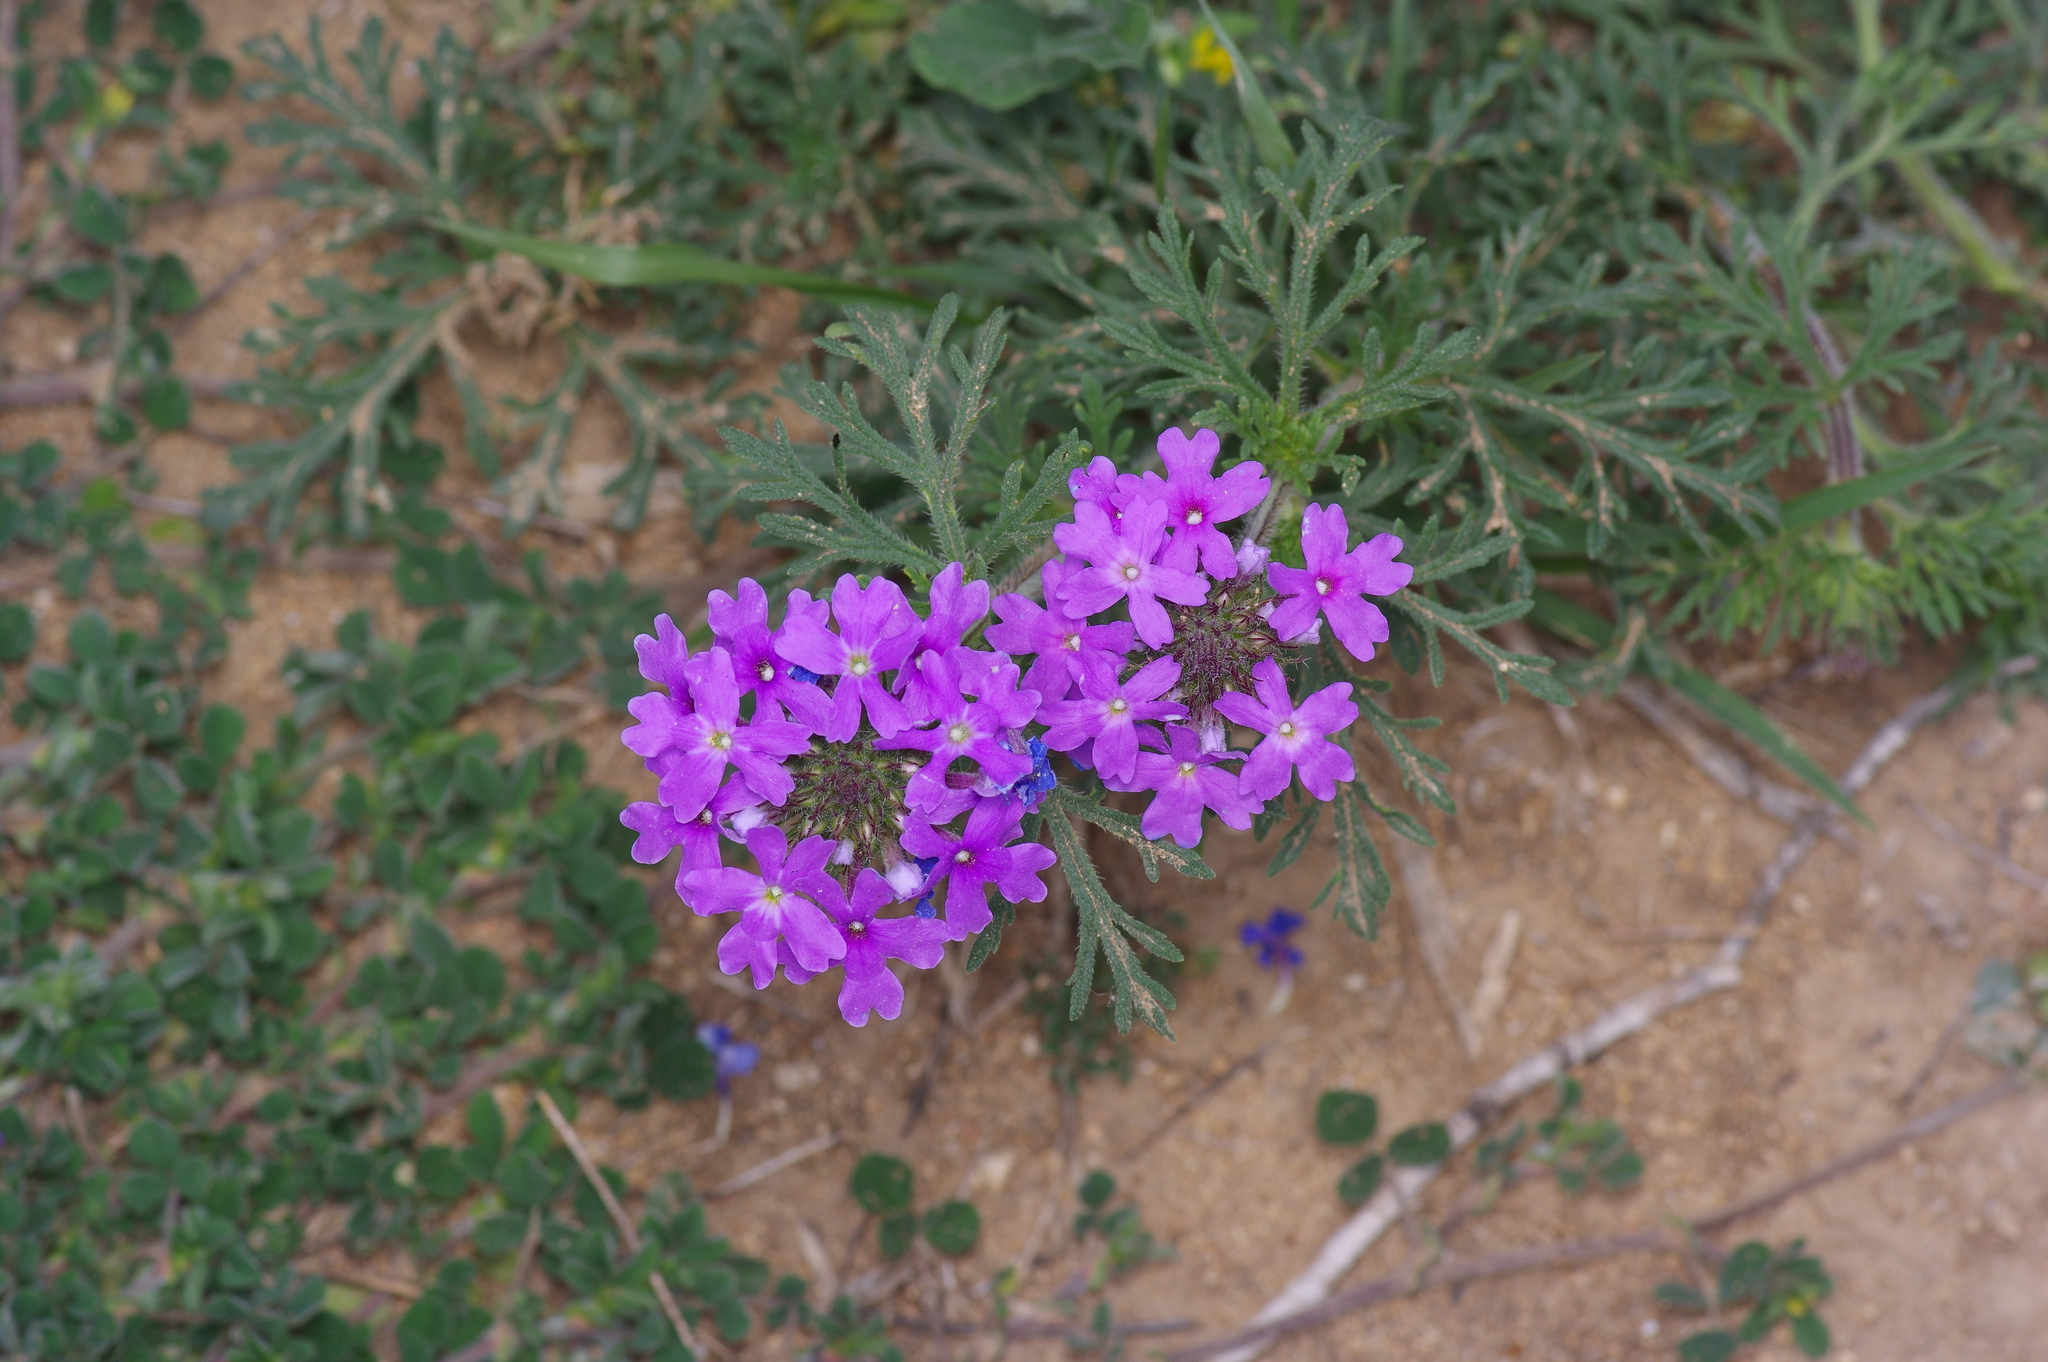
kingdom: Plantae
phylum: Tracheophyta
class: Magnoliopsida
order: Lamiales
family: Verbenaceae
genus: Verbena
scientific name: Verbena bipinnatifida
